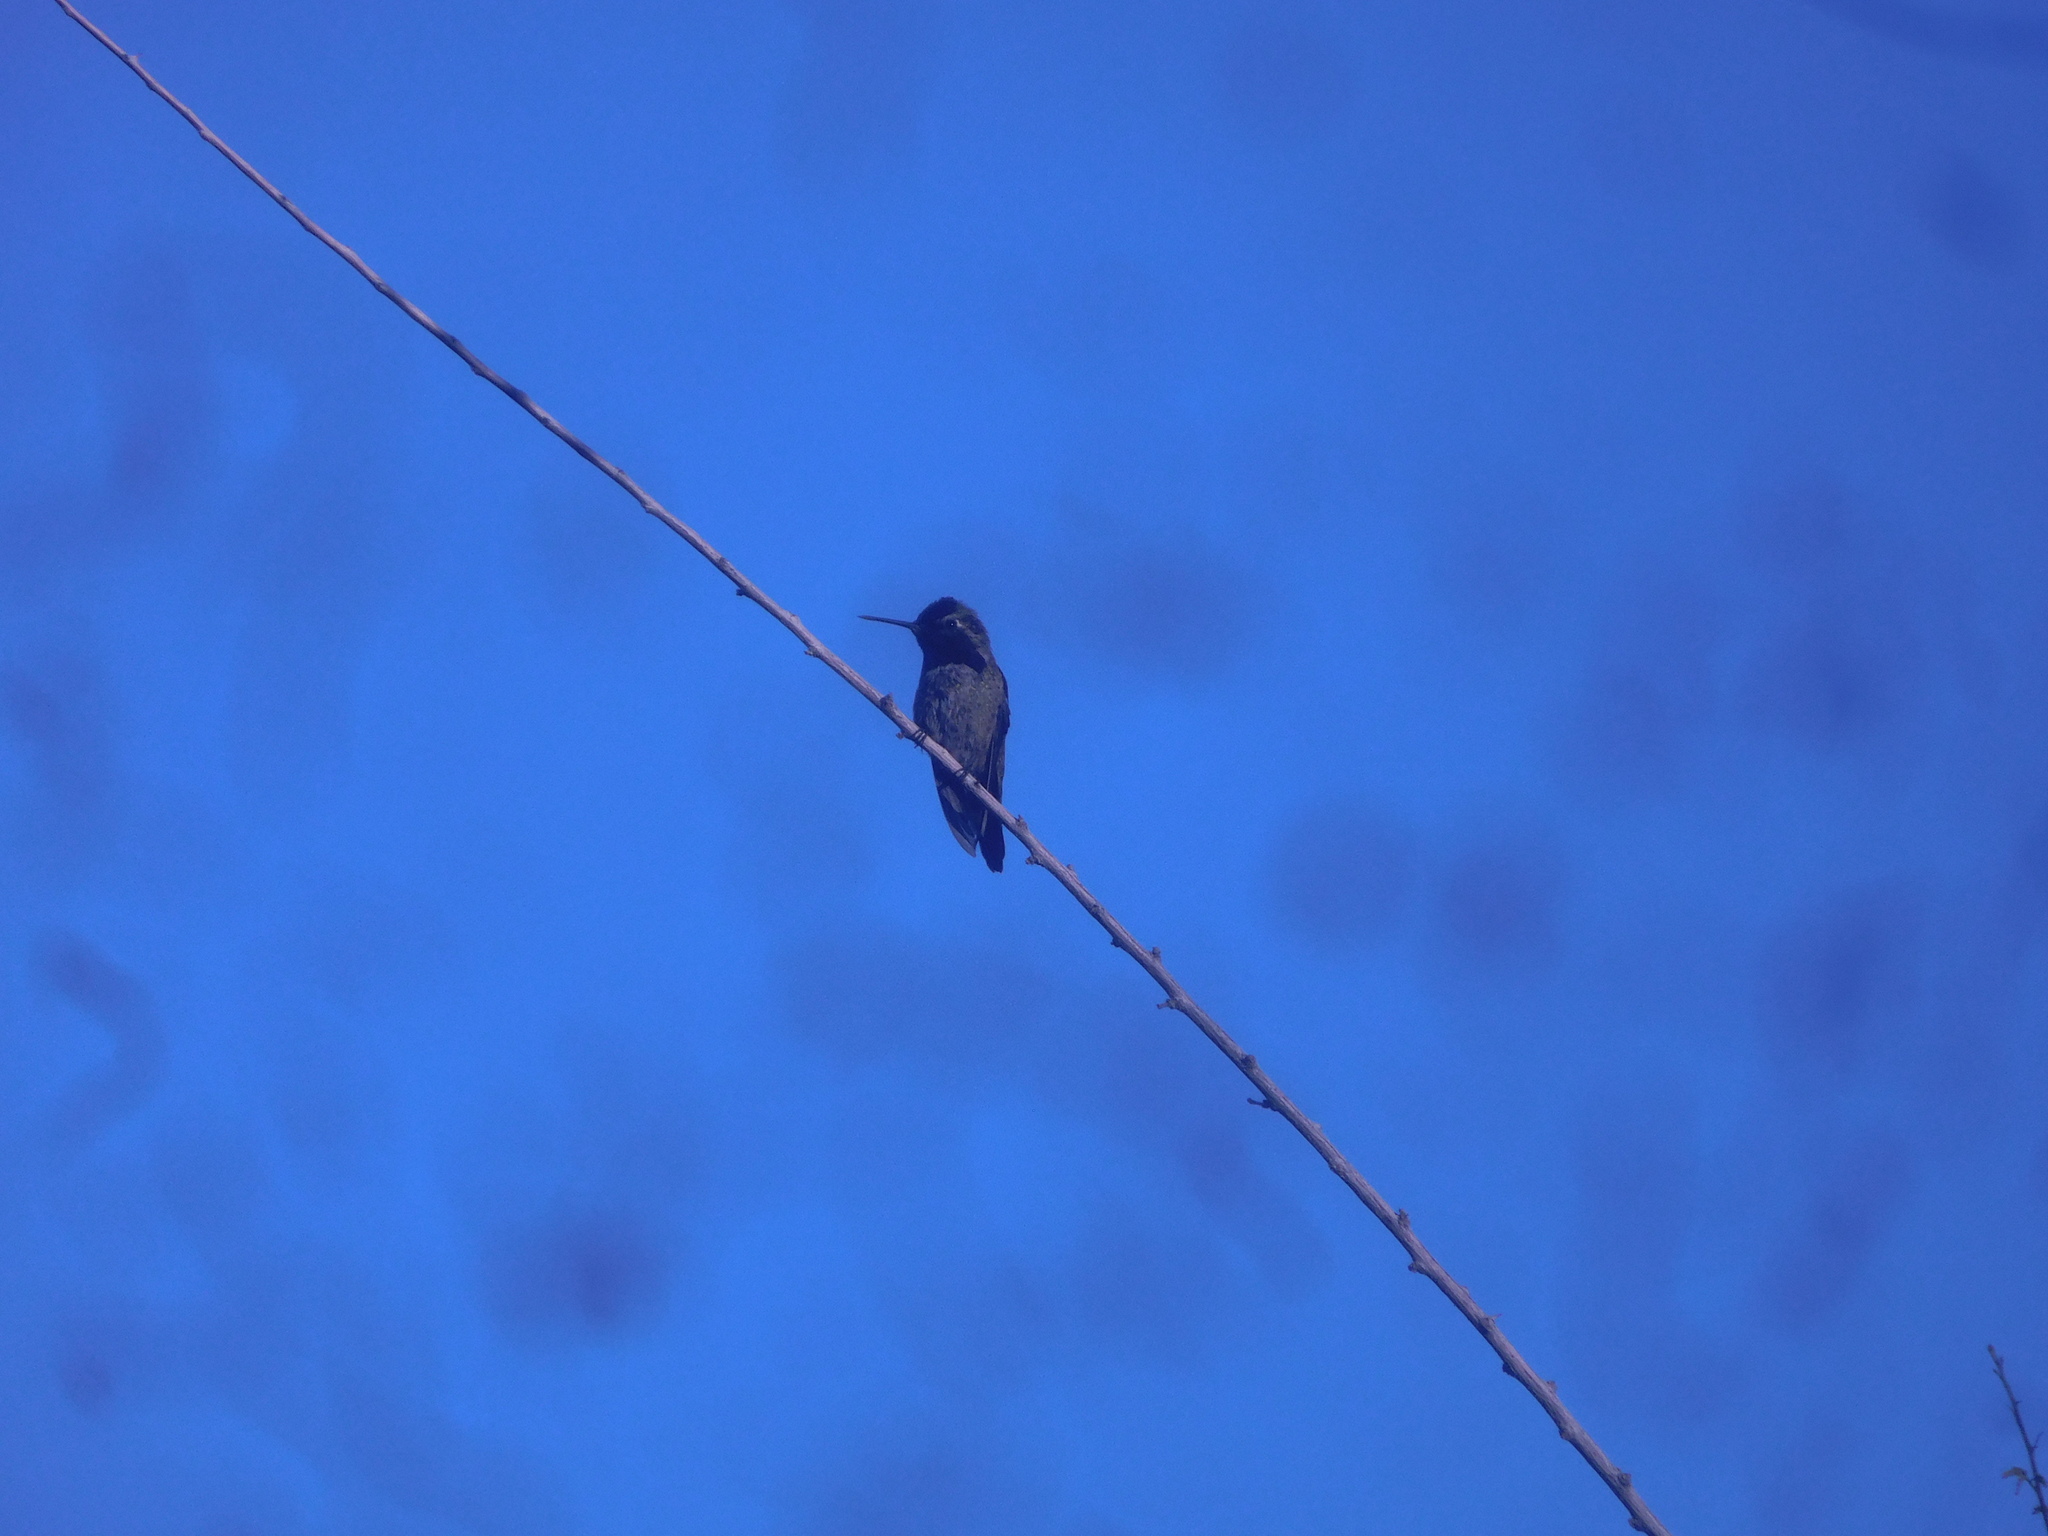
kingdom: Animalia
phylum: Chordata
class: Aves
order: Apodiformes
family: Trochilidae
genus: Calypte
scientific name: Calypte anna
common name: Anna's hummingbird
